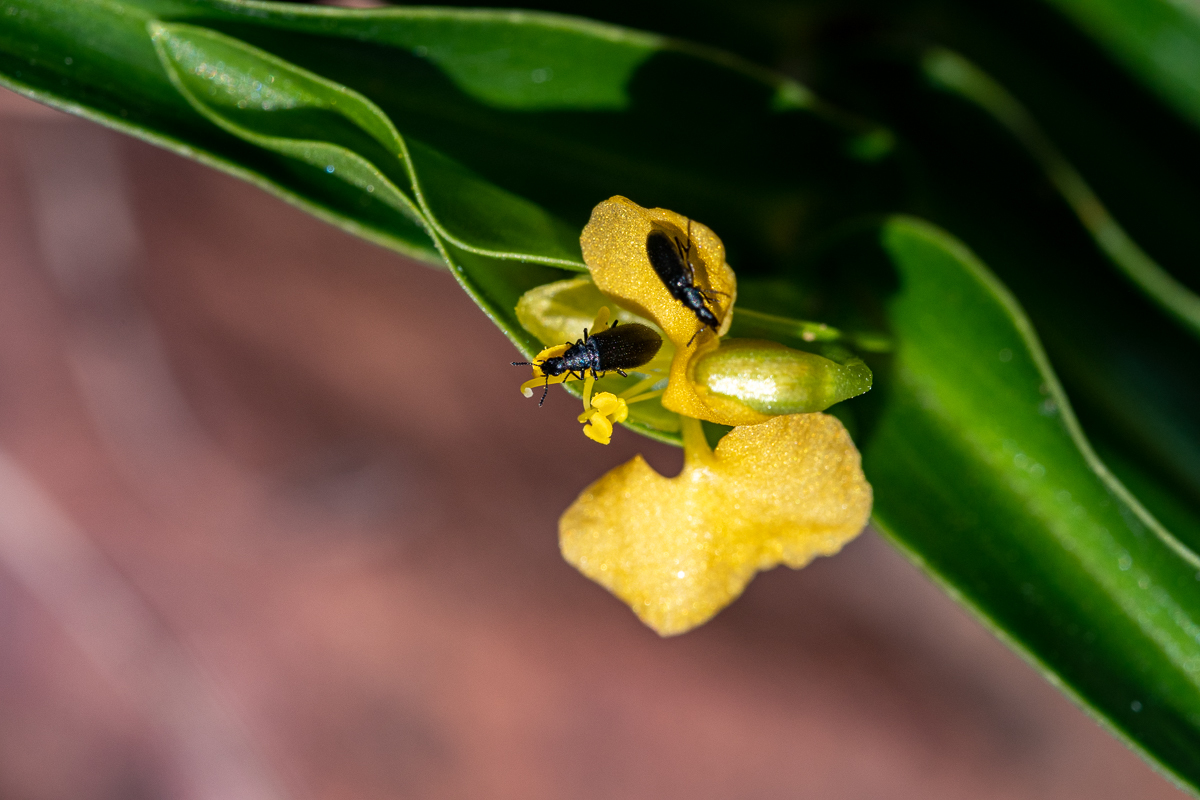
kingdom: Plantae
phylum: Tracheophyta
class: Liliopsida
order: Commelinales
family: Commelinaceae
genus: Commelina
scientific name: Commelina africana
